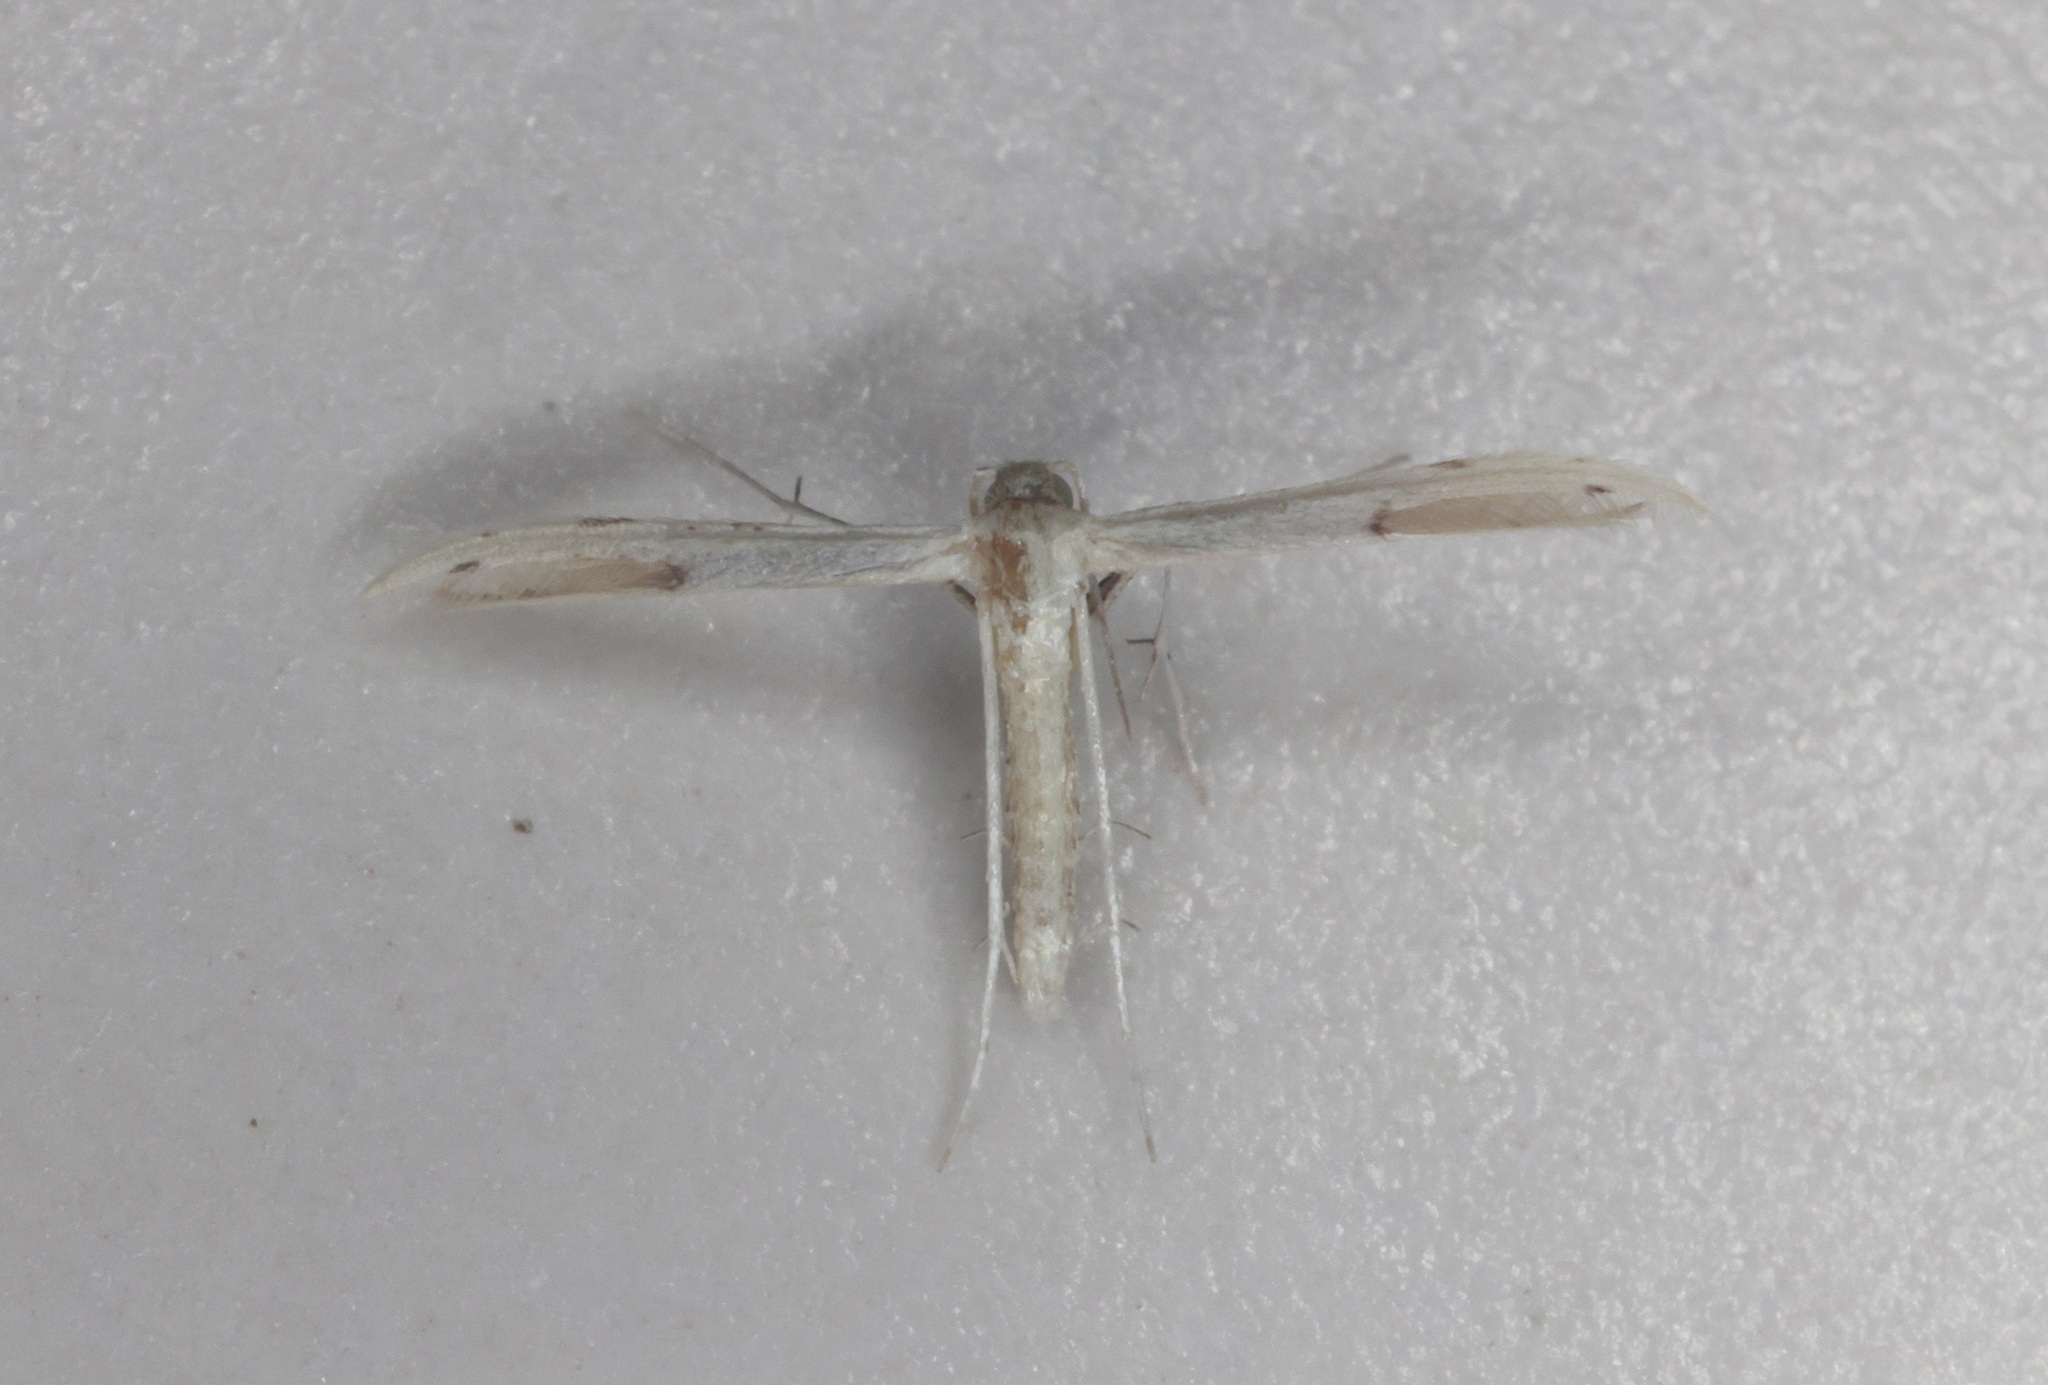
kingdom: Animalia
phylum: Arthropoda
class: Insecta
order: Lepidoptera
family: Pterophoridae
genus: Adaina
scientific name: Adaina microdactyla
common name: Hemp-agrimony plume
